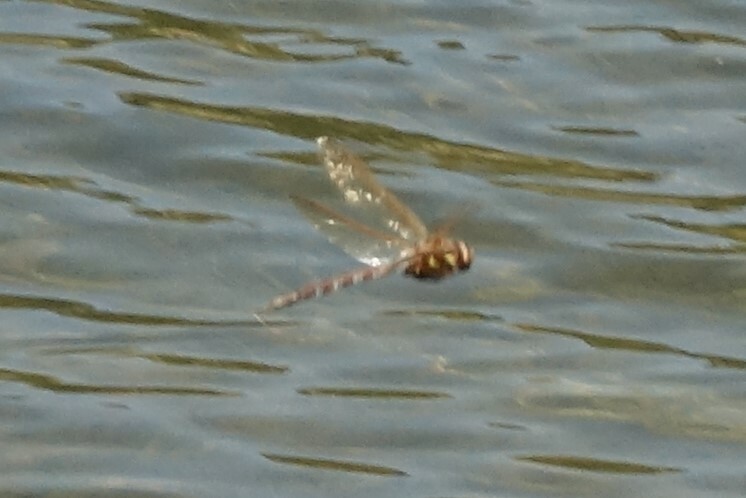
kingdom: Animalia
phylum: Arthropoda
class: Insecta
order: Odonata
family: Aeshnidae
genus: Aeshna
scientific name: Aeshna grandis
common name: Brown hawker
